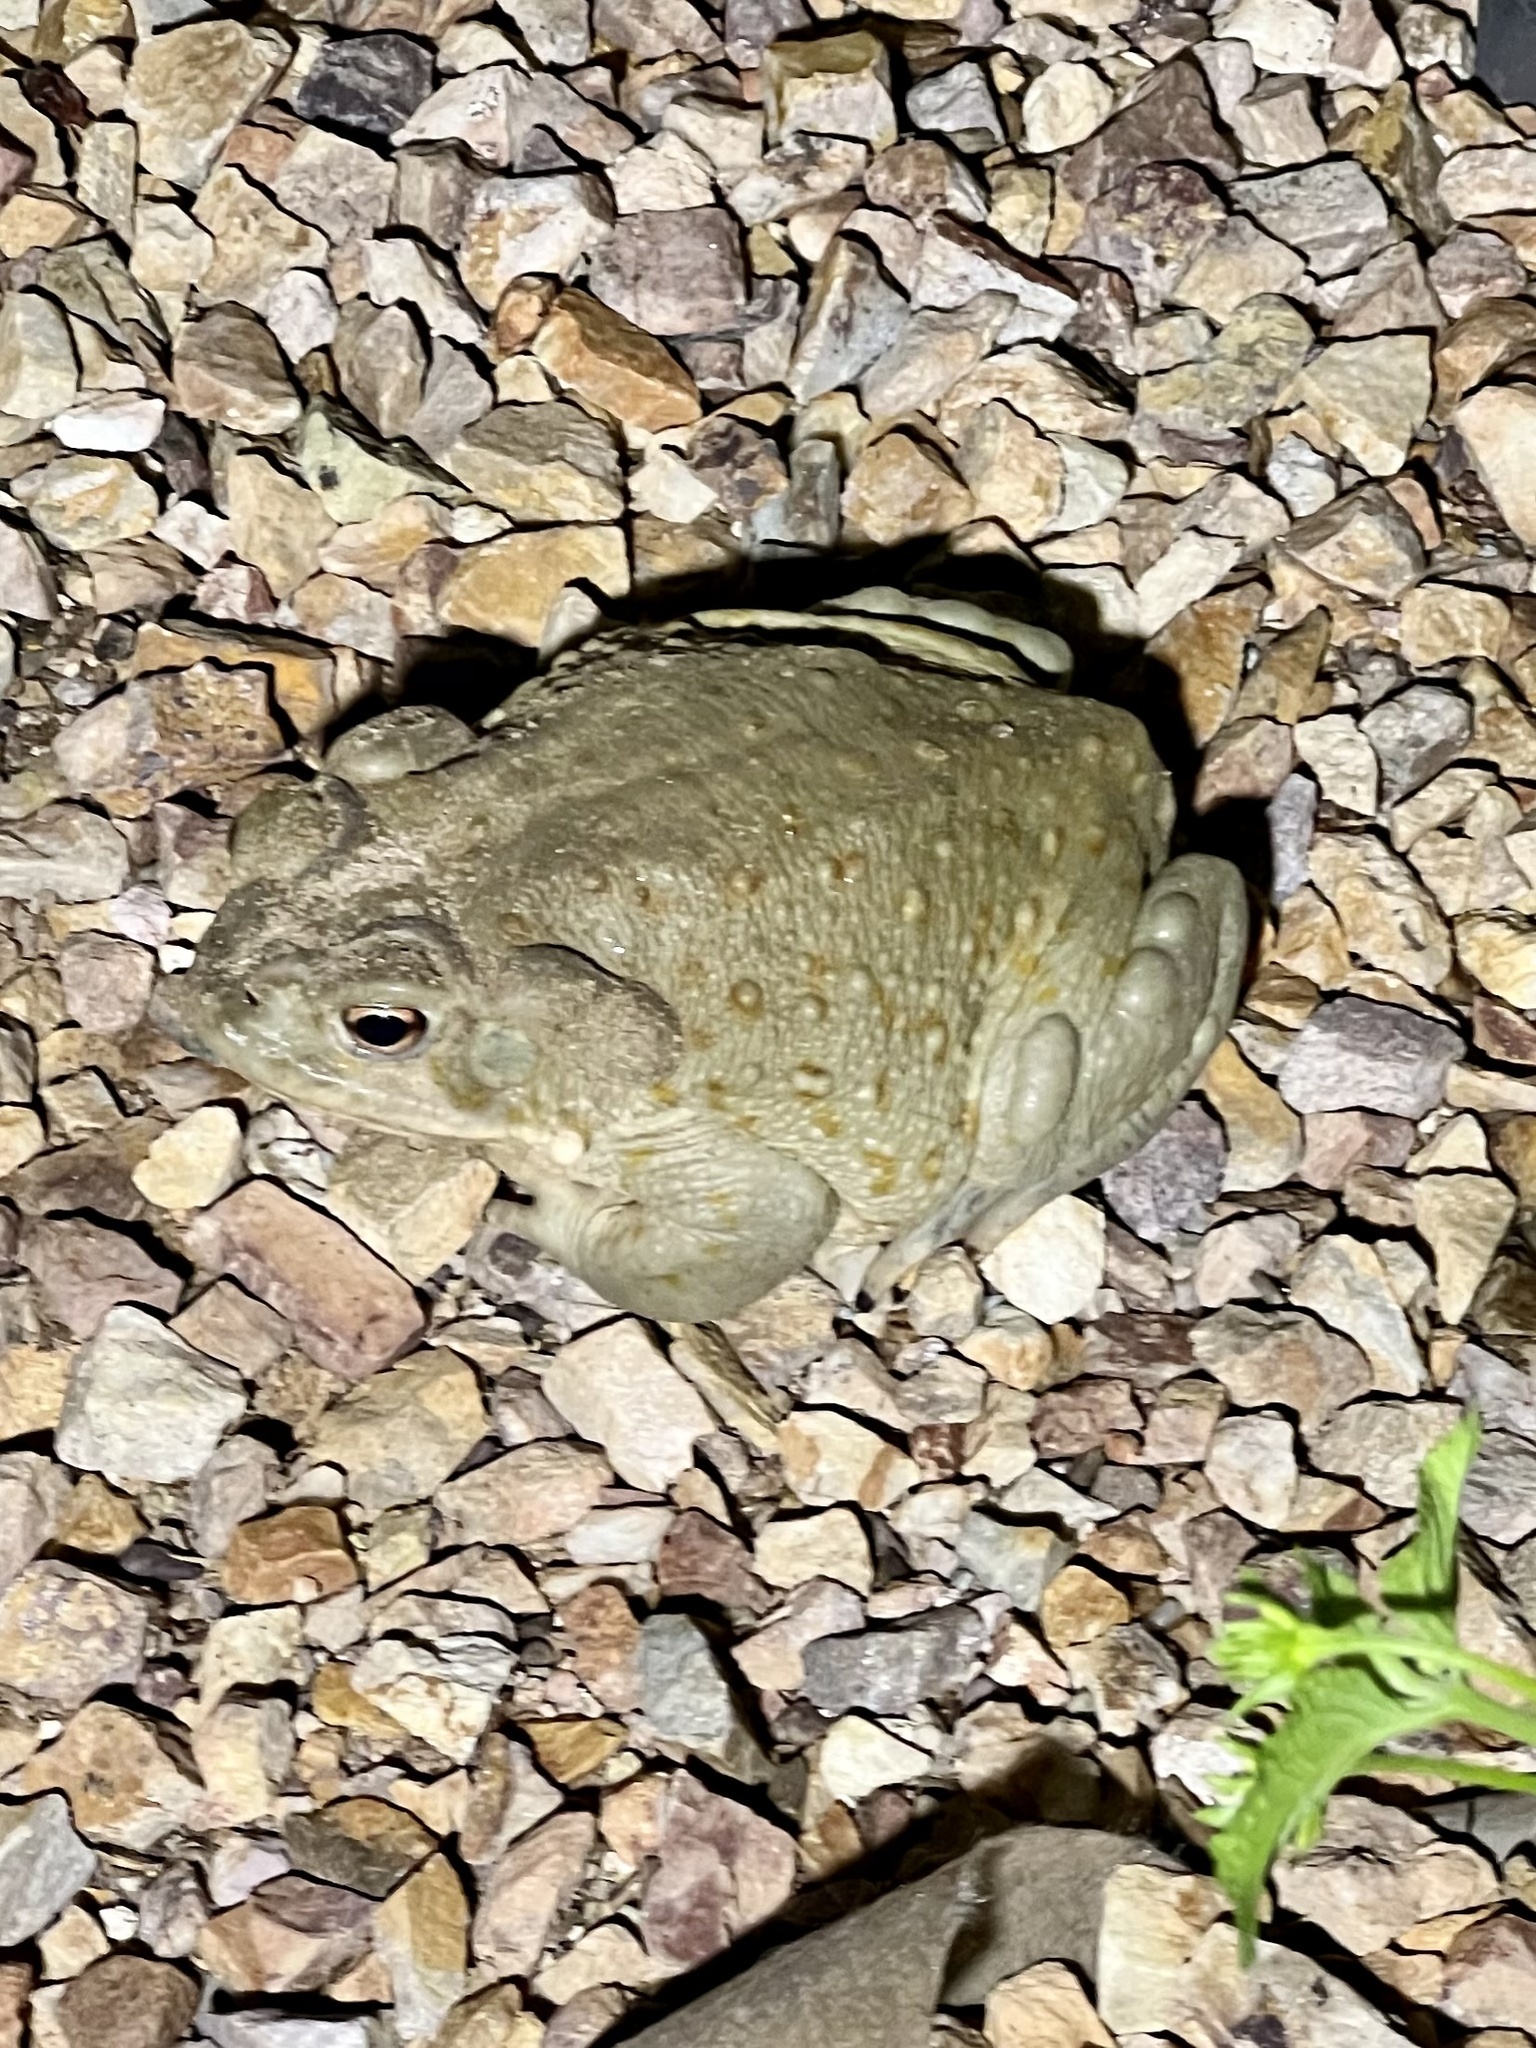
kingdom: Animalia
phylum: Chordata
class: Amphibia
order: Anura
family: Bufonidae
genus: Incilius
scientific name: Incilius alvarius
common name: Sonoran desert toad
